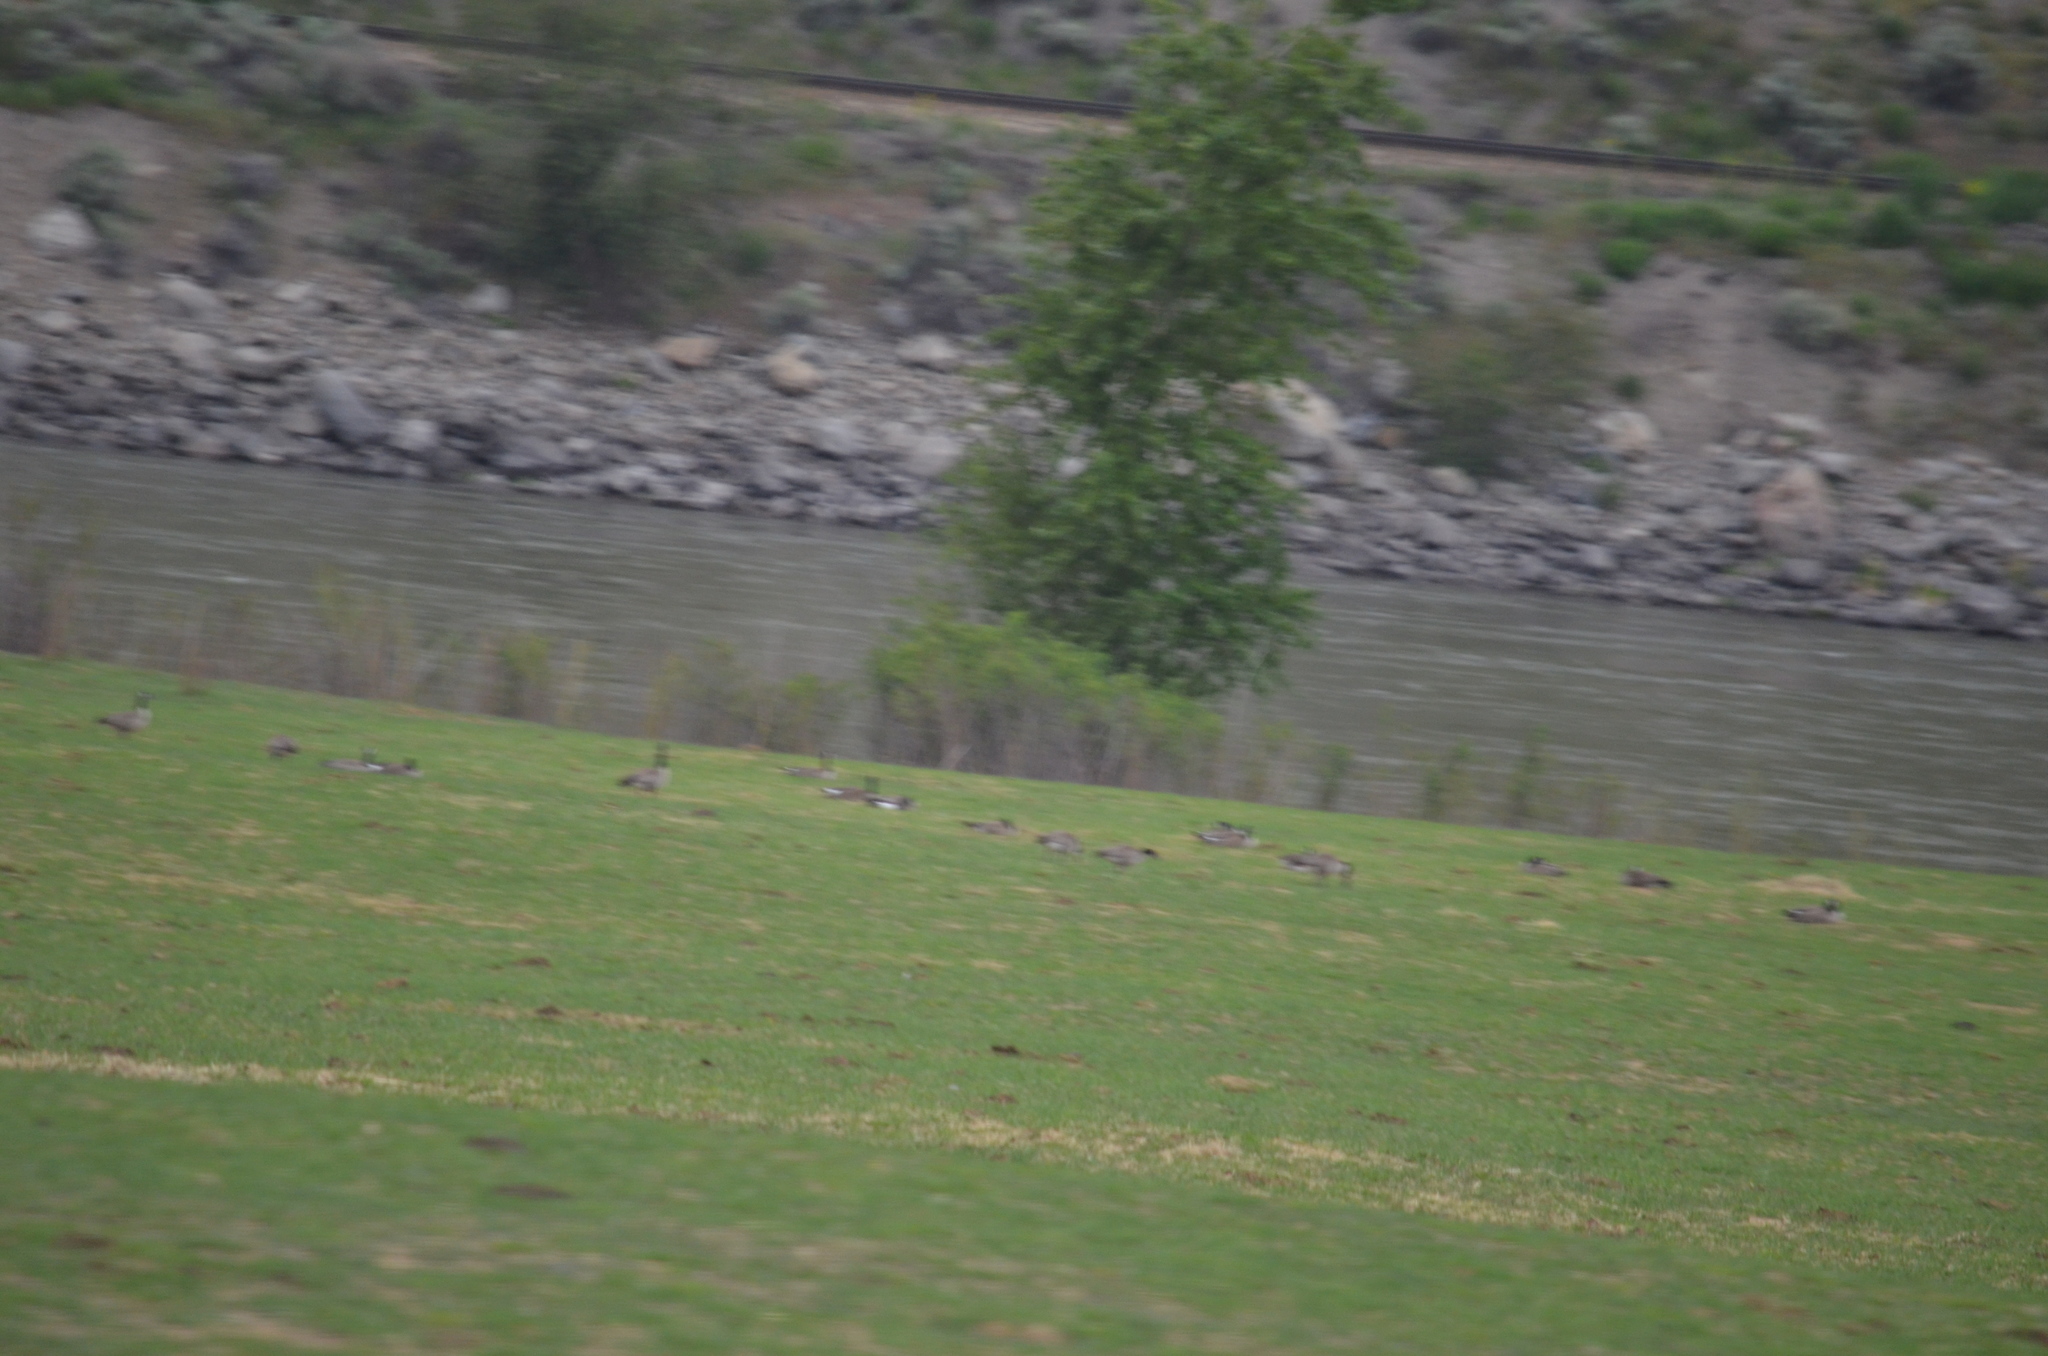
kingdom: Animalia
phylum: Chordata
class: Aves
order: Anseriformes
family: Anatidae
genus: Branta
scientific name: Branta canadensis
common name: Canada goose
